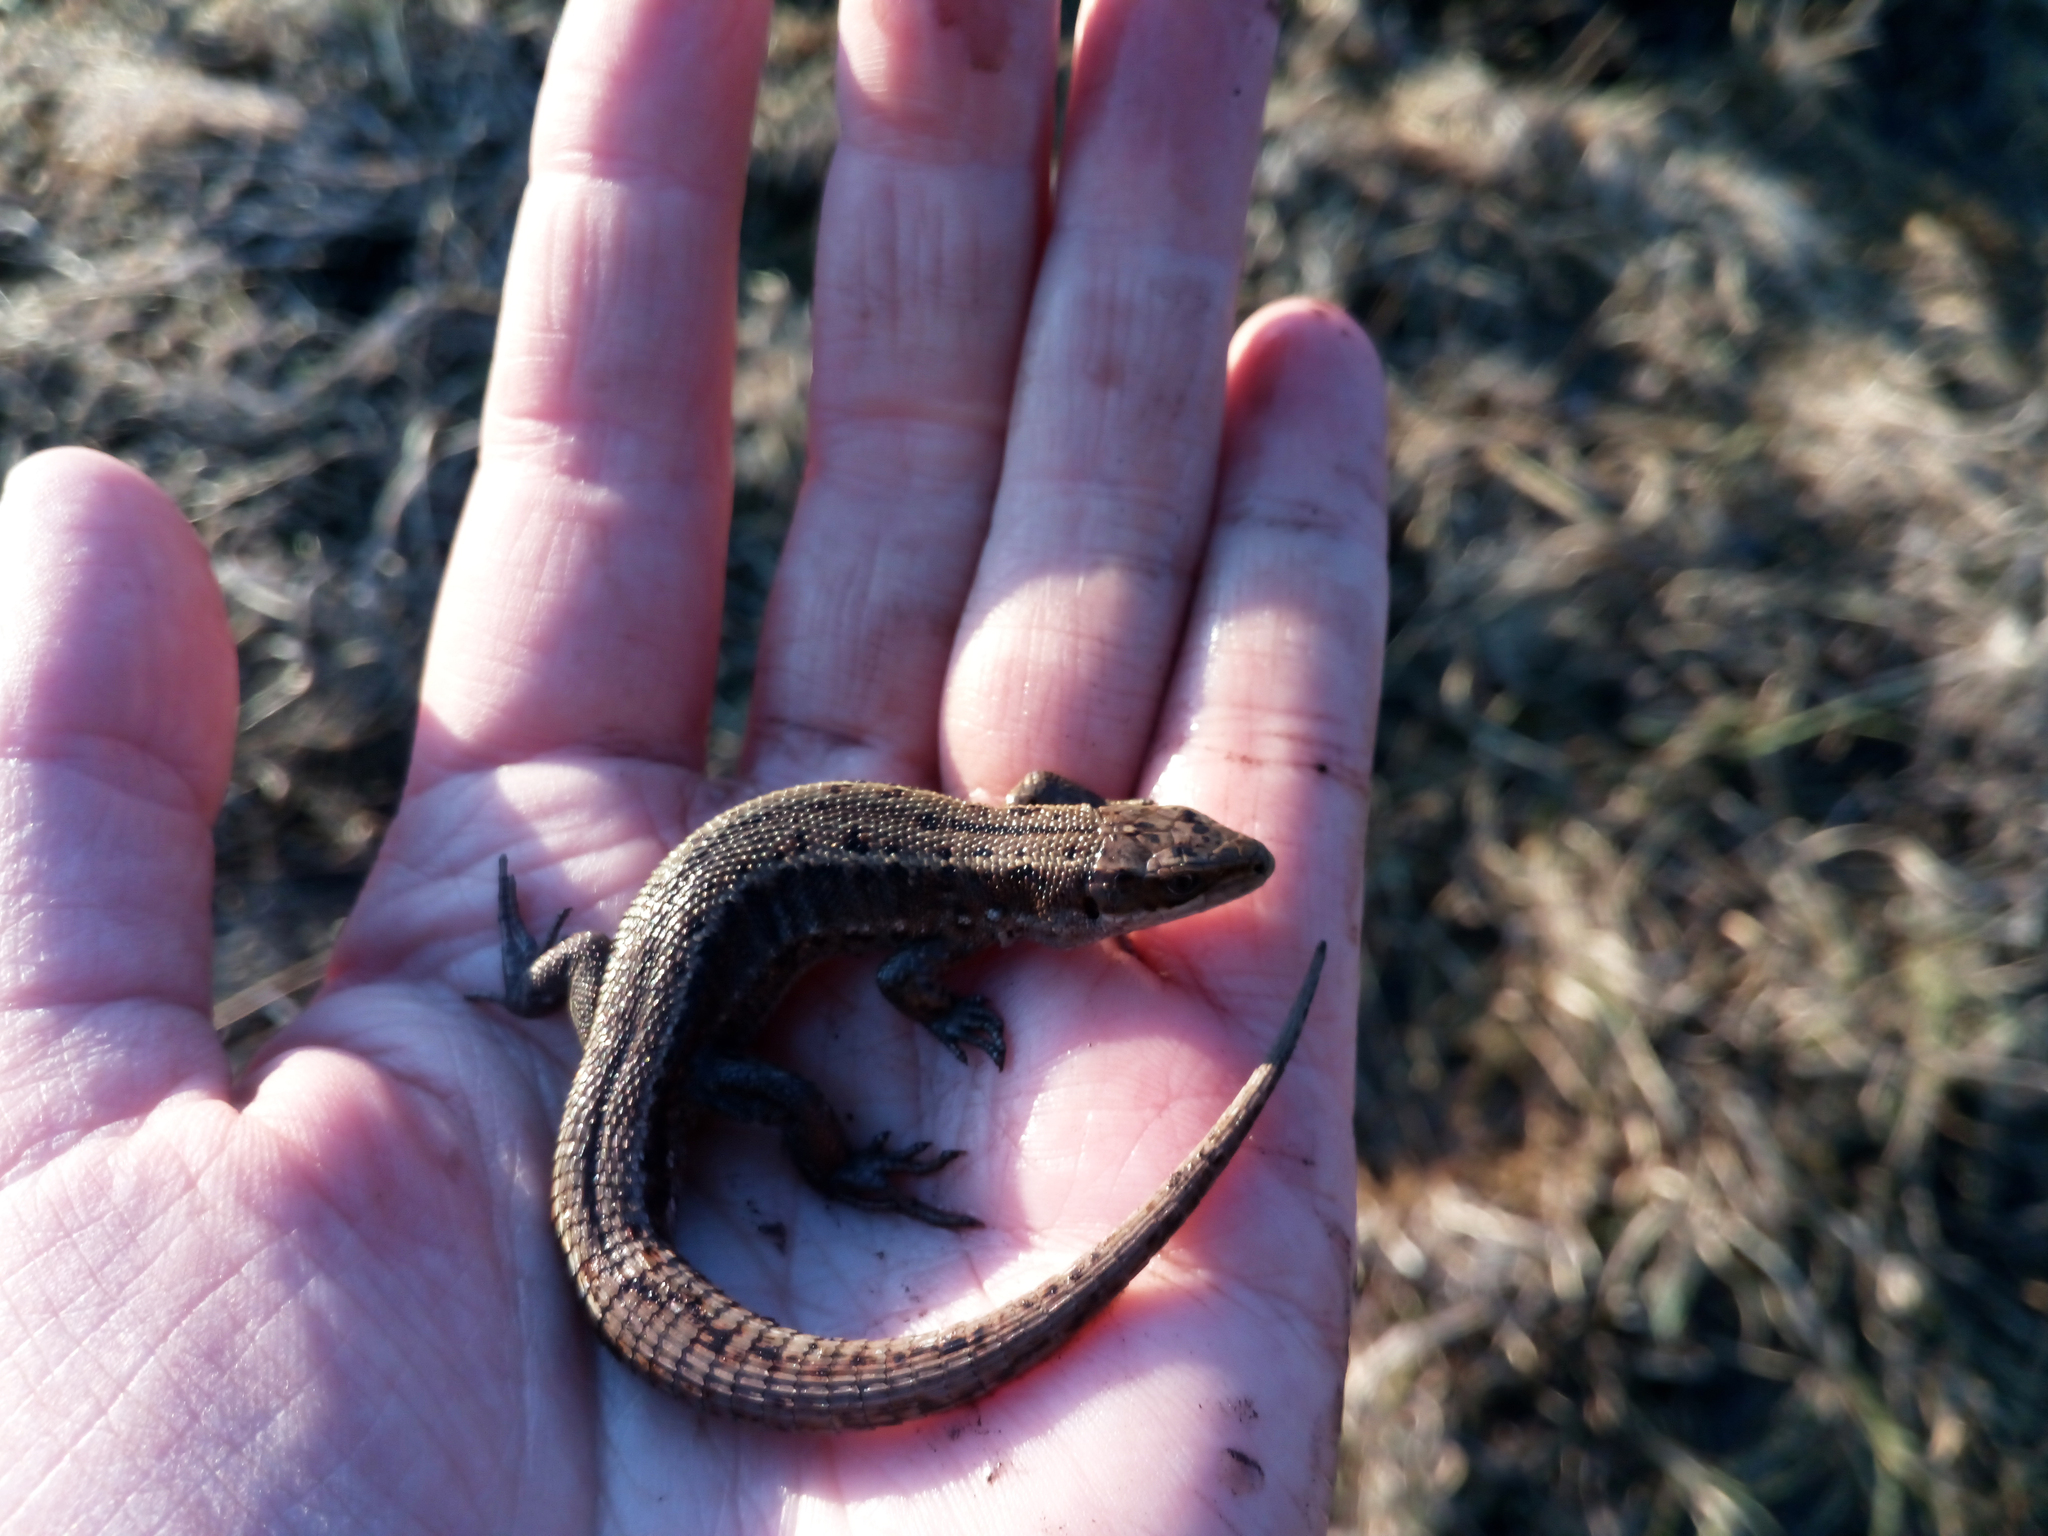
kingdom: Animalia
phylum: Chordata
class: Squamata
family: Lacertidae
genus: Zootoca
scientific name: Zootoca vivipara
